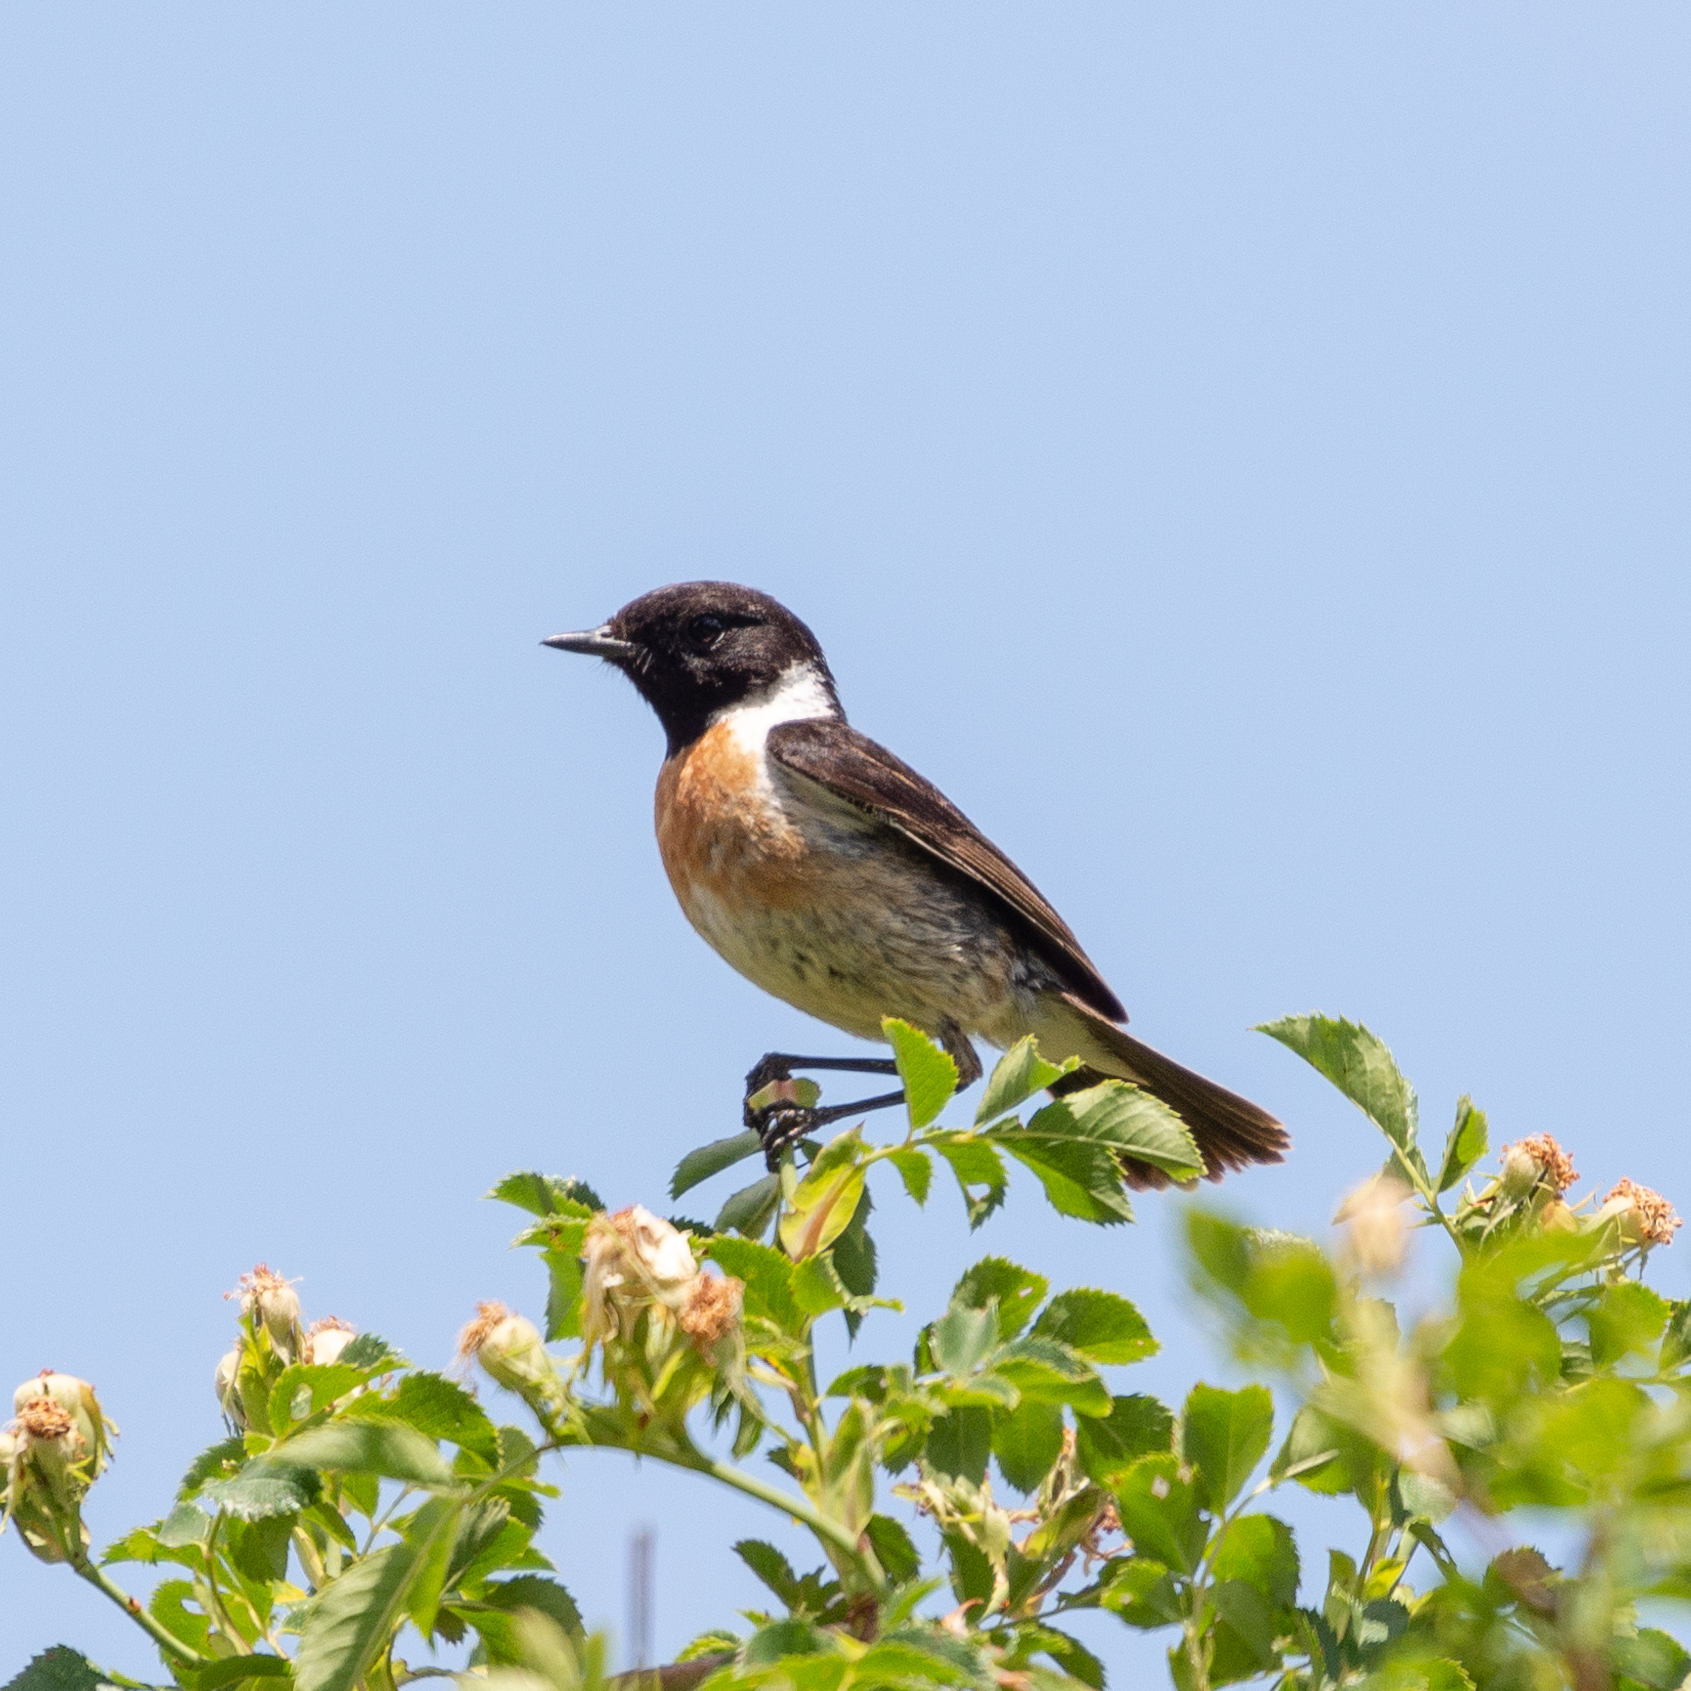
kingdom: Animalia
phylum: Chordata
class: Aves
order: Passeriformes
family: Muscicapidae
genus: Saxicola
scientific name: Saxicola rubicola
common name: European stonechat
